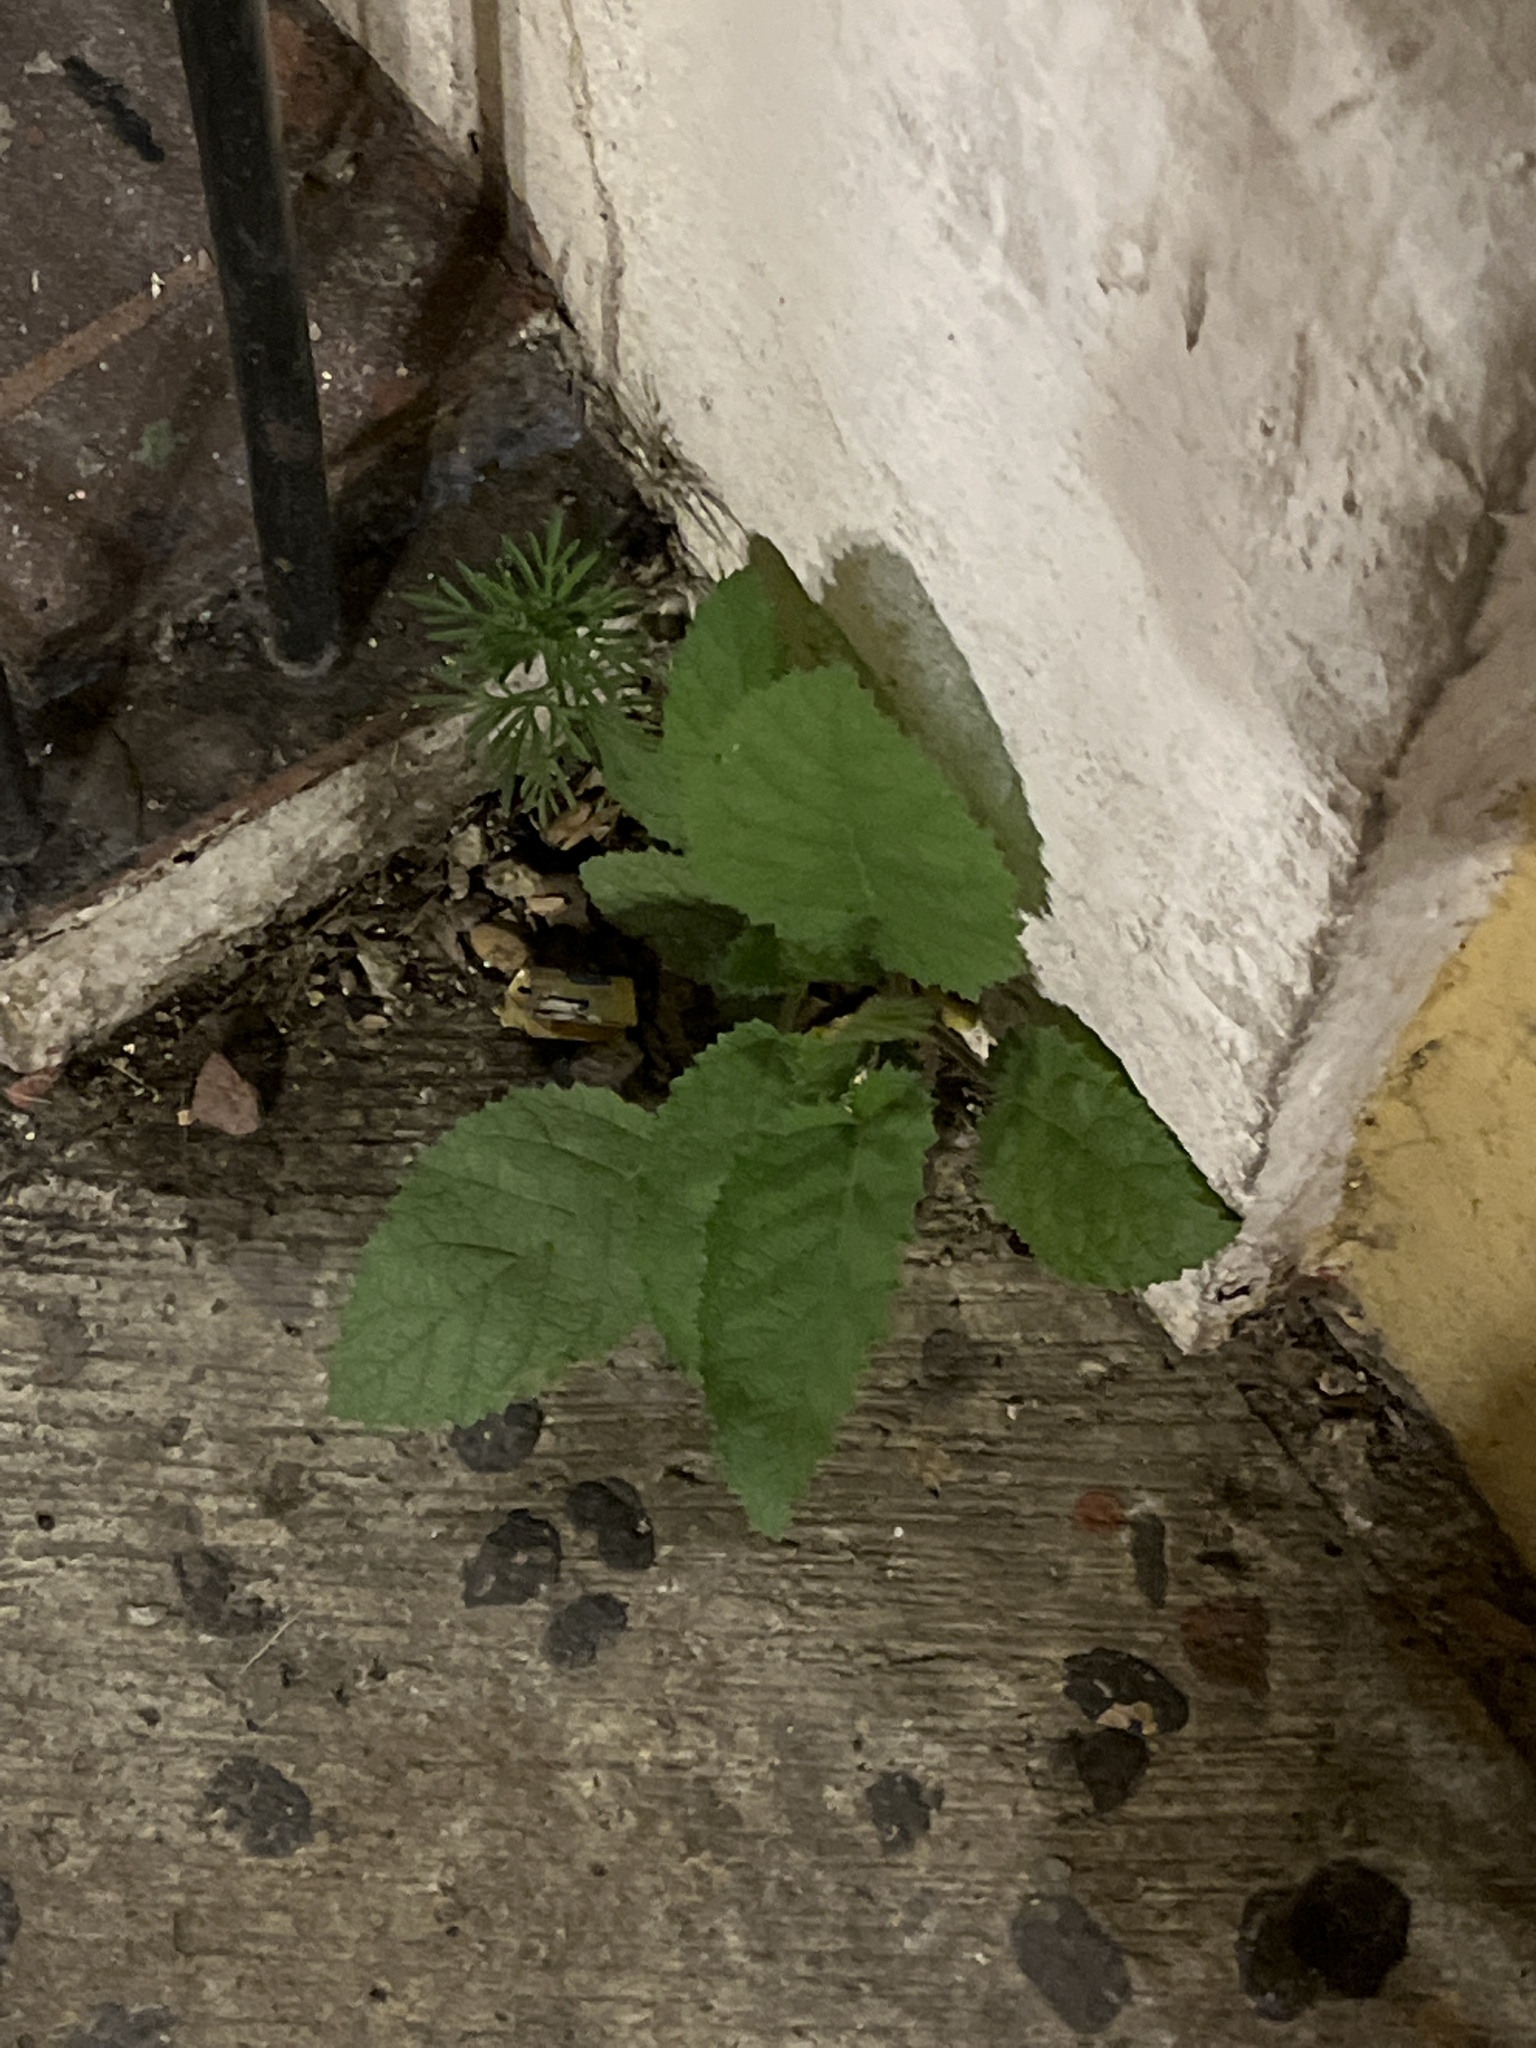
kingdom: Plantae
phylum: Tracheophyta
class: Magnoliopsida
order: Boraginales
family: Namaceae
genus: Wigandia
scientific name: Wigandia urens
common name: Caracus wigandia
